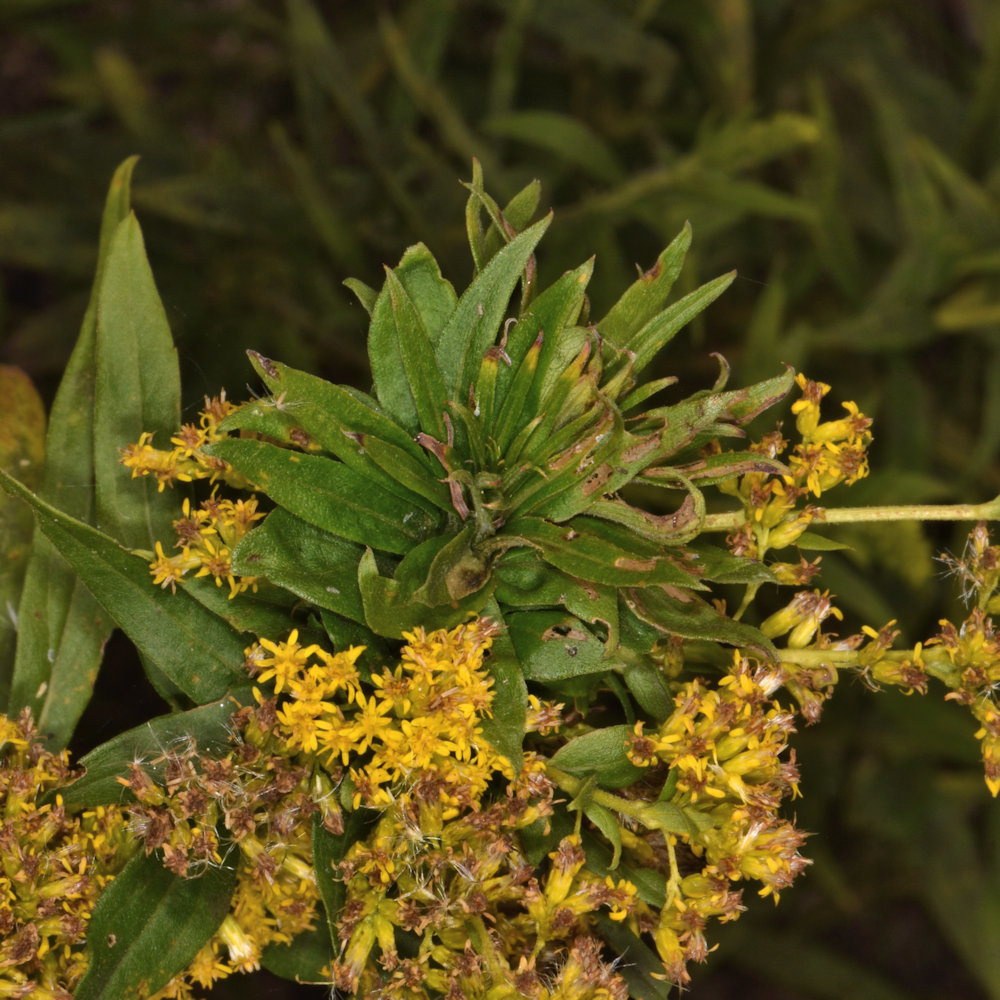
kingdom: Animalia
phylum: Arthropoda
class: Insecta
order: Diptera
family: Cecidomyiidae
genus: Rhopalomyia
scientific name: Rhopalomyia solidaginis
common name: Goldenrod bunch gall midge
